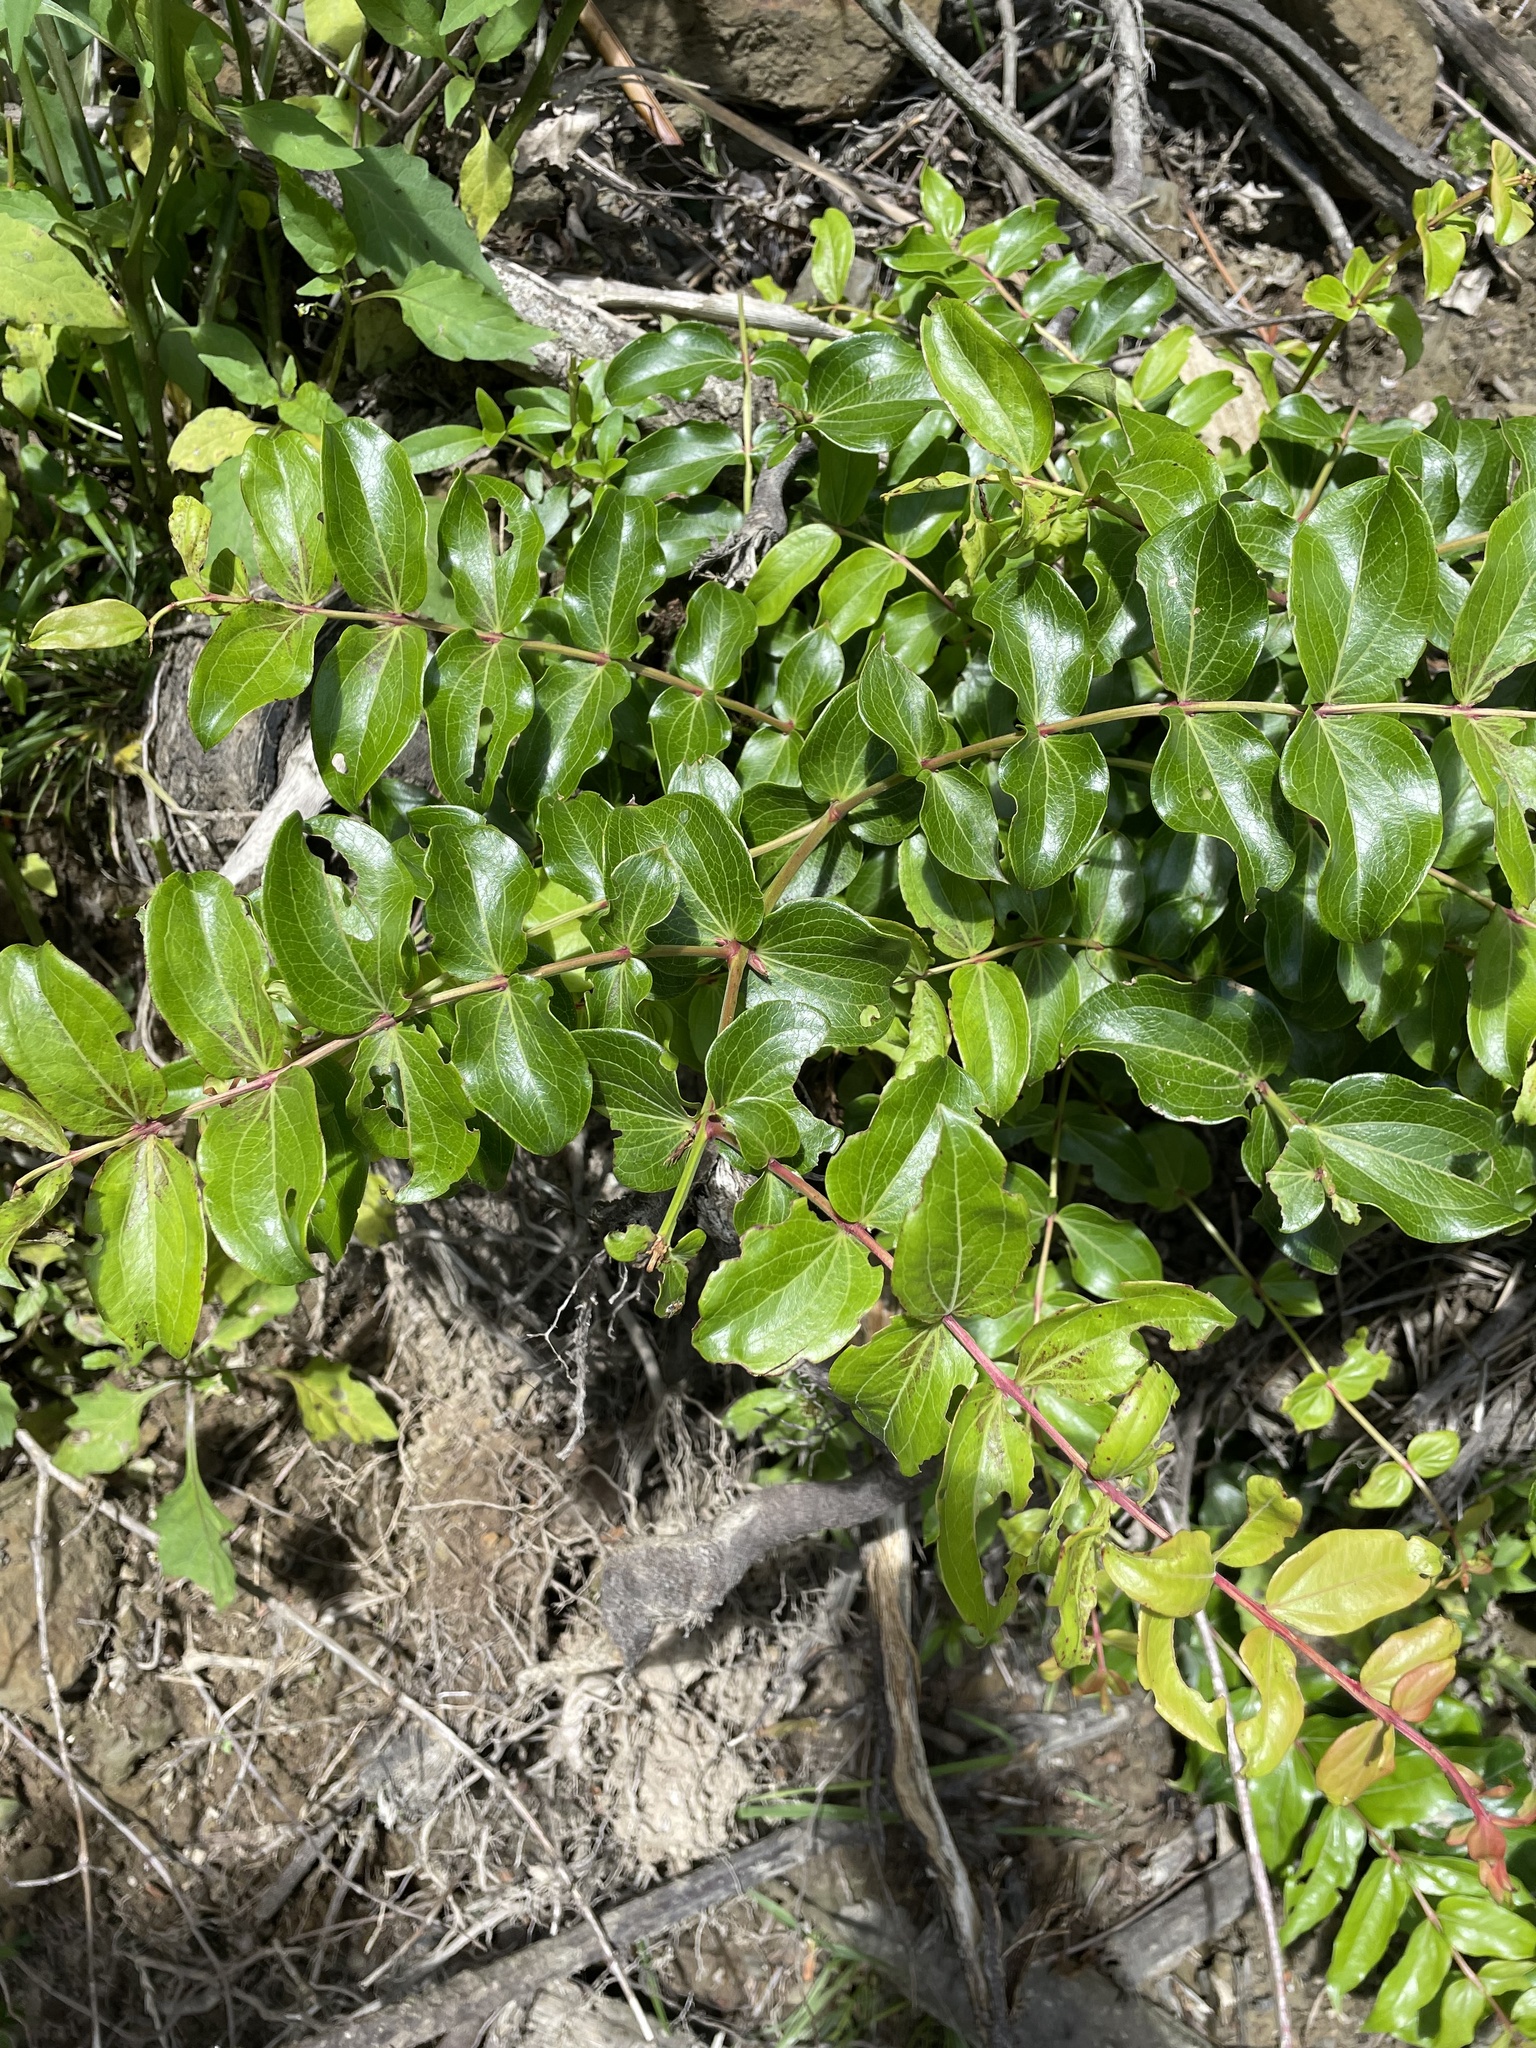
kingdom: Plantae
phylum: Tracheophyta
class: Magnoliopsida
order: Cucurbitales
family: Coriariaceae
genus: Coriaria
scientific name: Coriaria arborea
